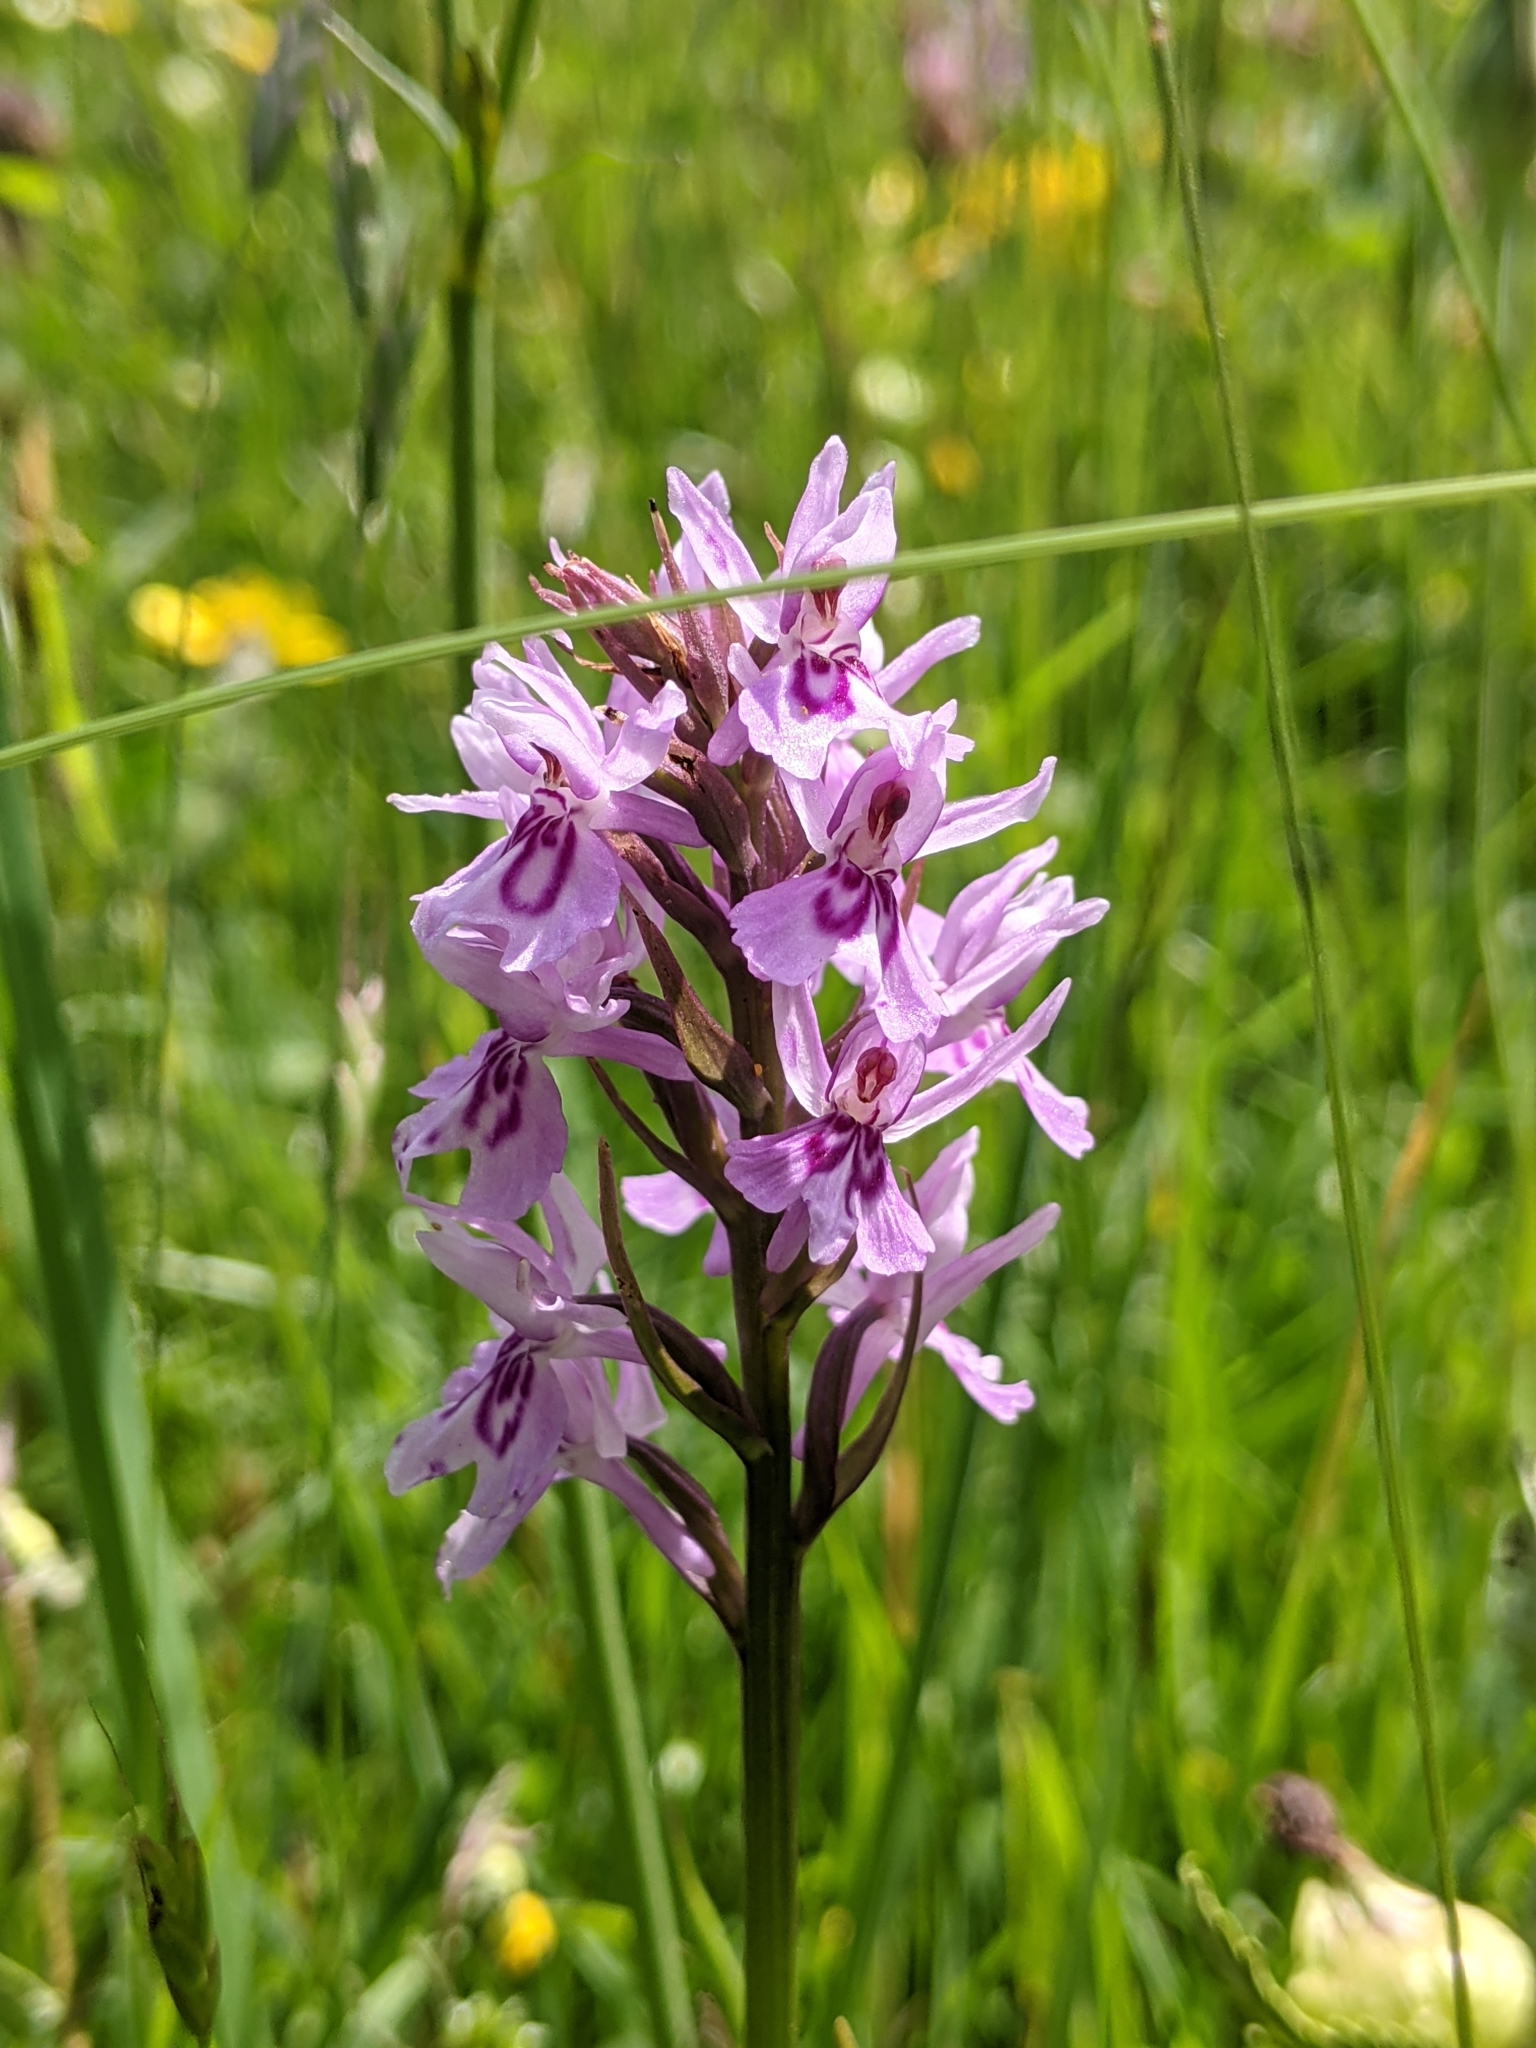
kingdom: Plantae
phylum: Tracheophyta
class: Liliopsida
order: Asparagales
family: Orchidaceae
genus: Dactylorhiza
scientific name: Dactylorhiza maculata
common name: Heath spotted-orchid
